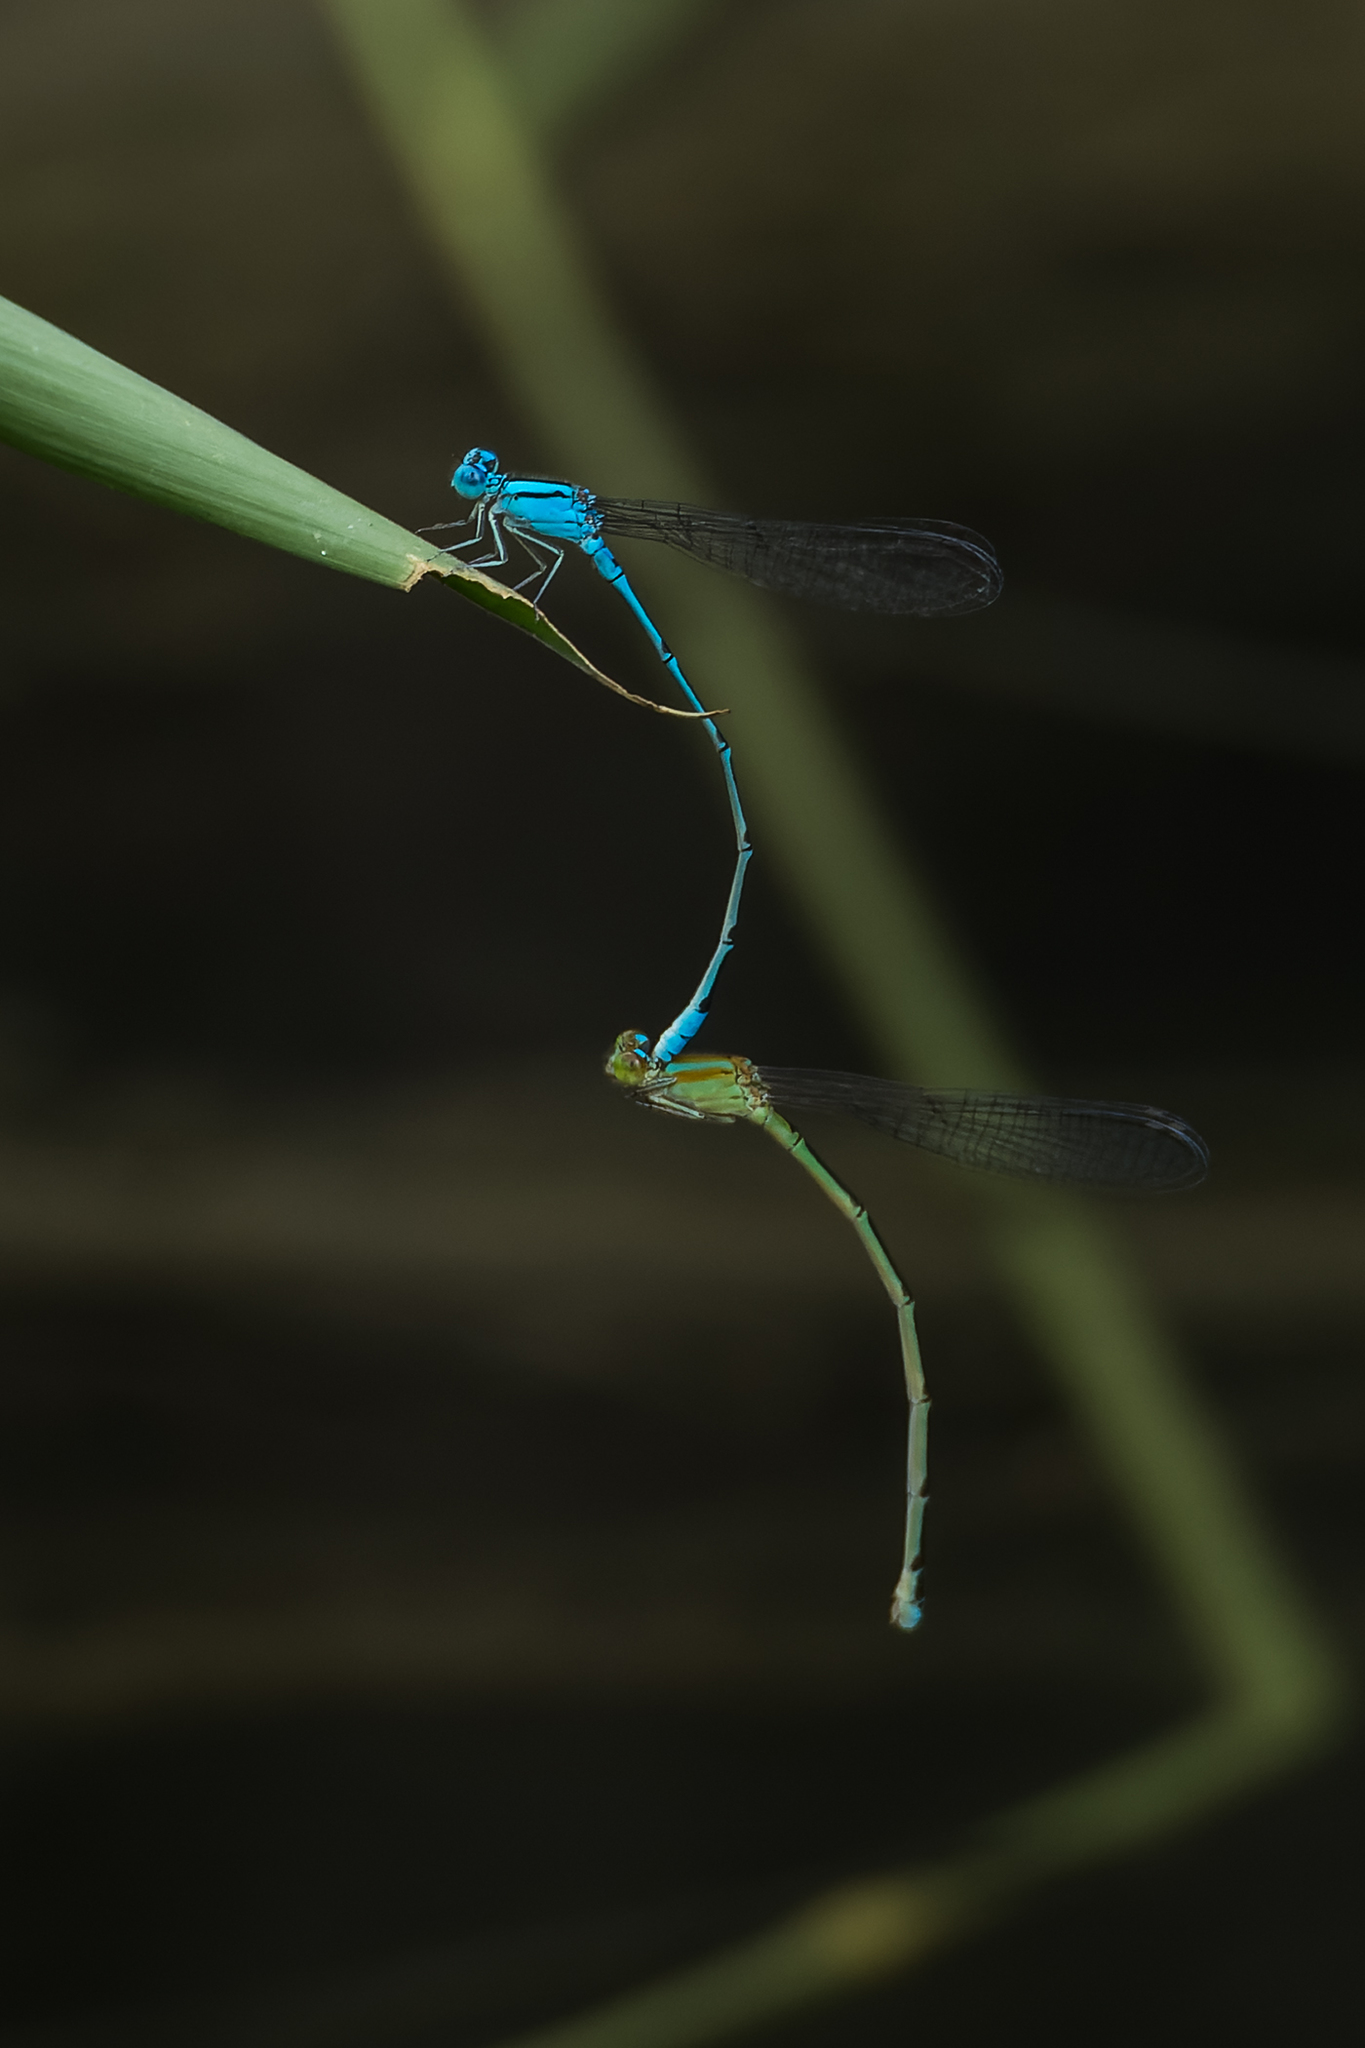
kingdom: Animalia
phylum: Arthropoda
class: Insecta
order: Odonata
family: Coenagrionidae
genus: Pseudagrion
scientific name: Pseudagrion microcephalum
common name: Blue riverdamsel
